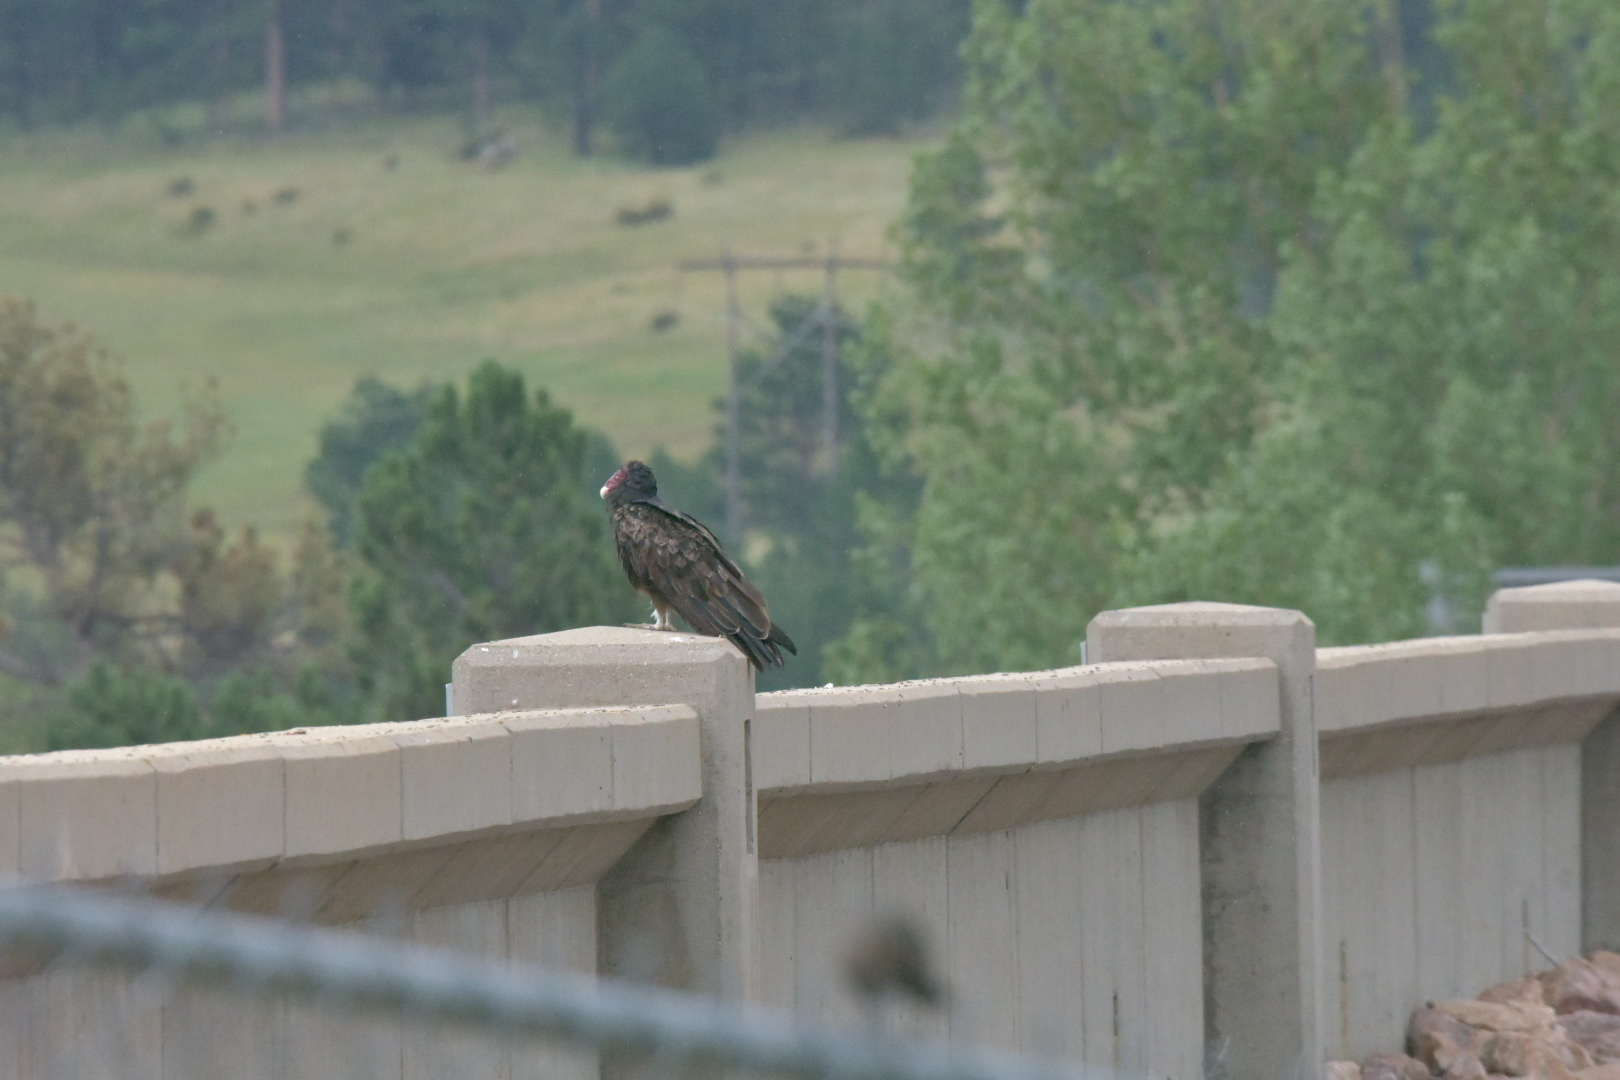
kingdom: Animalia
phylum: Chordata
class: Aves
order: Accipitriformes
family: Cathartidae
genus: Cathartes
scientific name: Cathartes aura
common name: Turkey vulture
